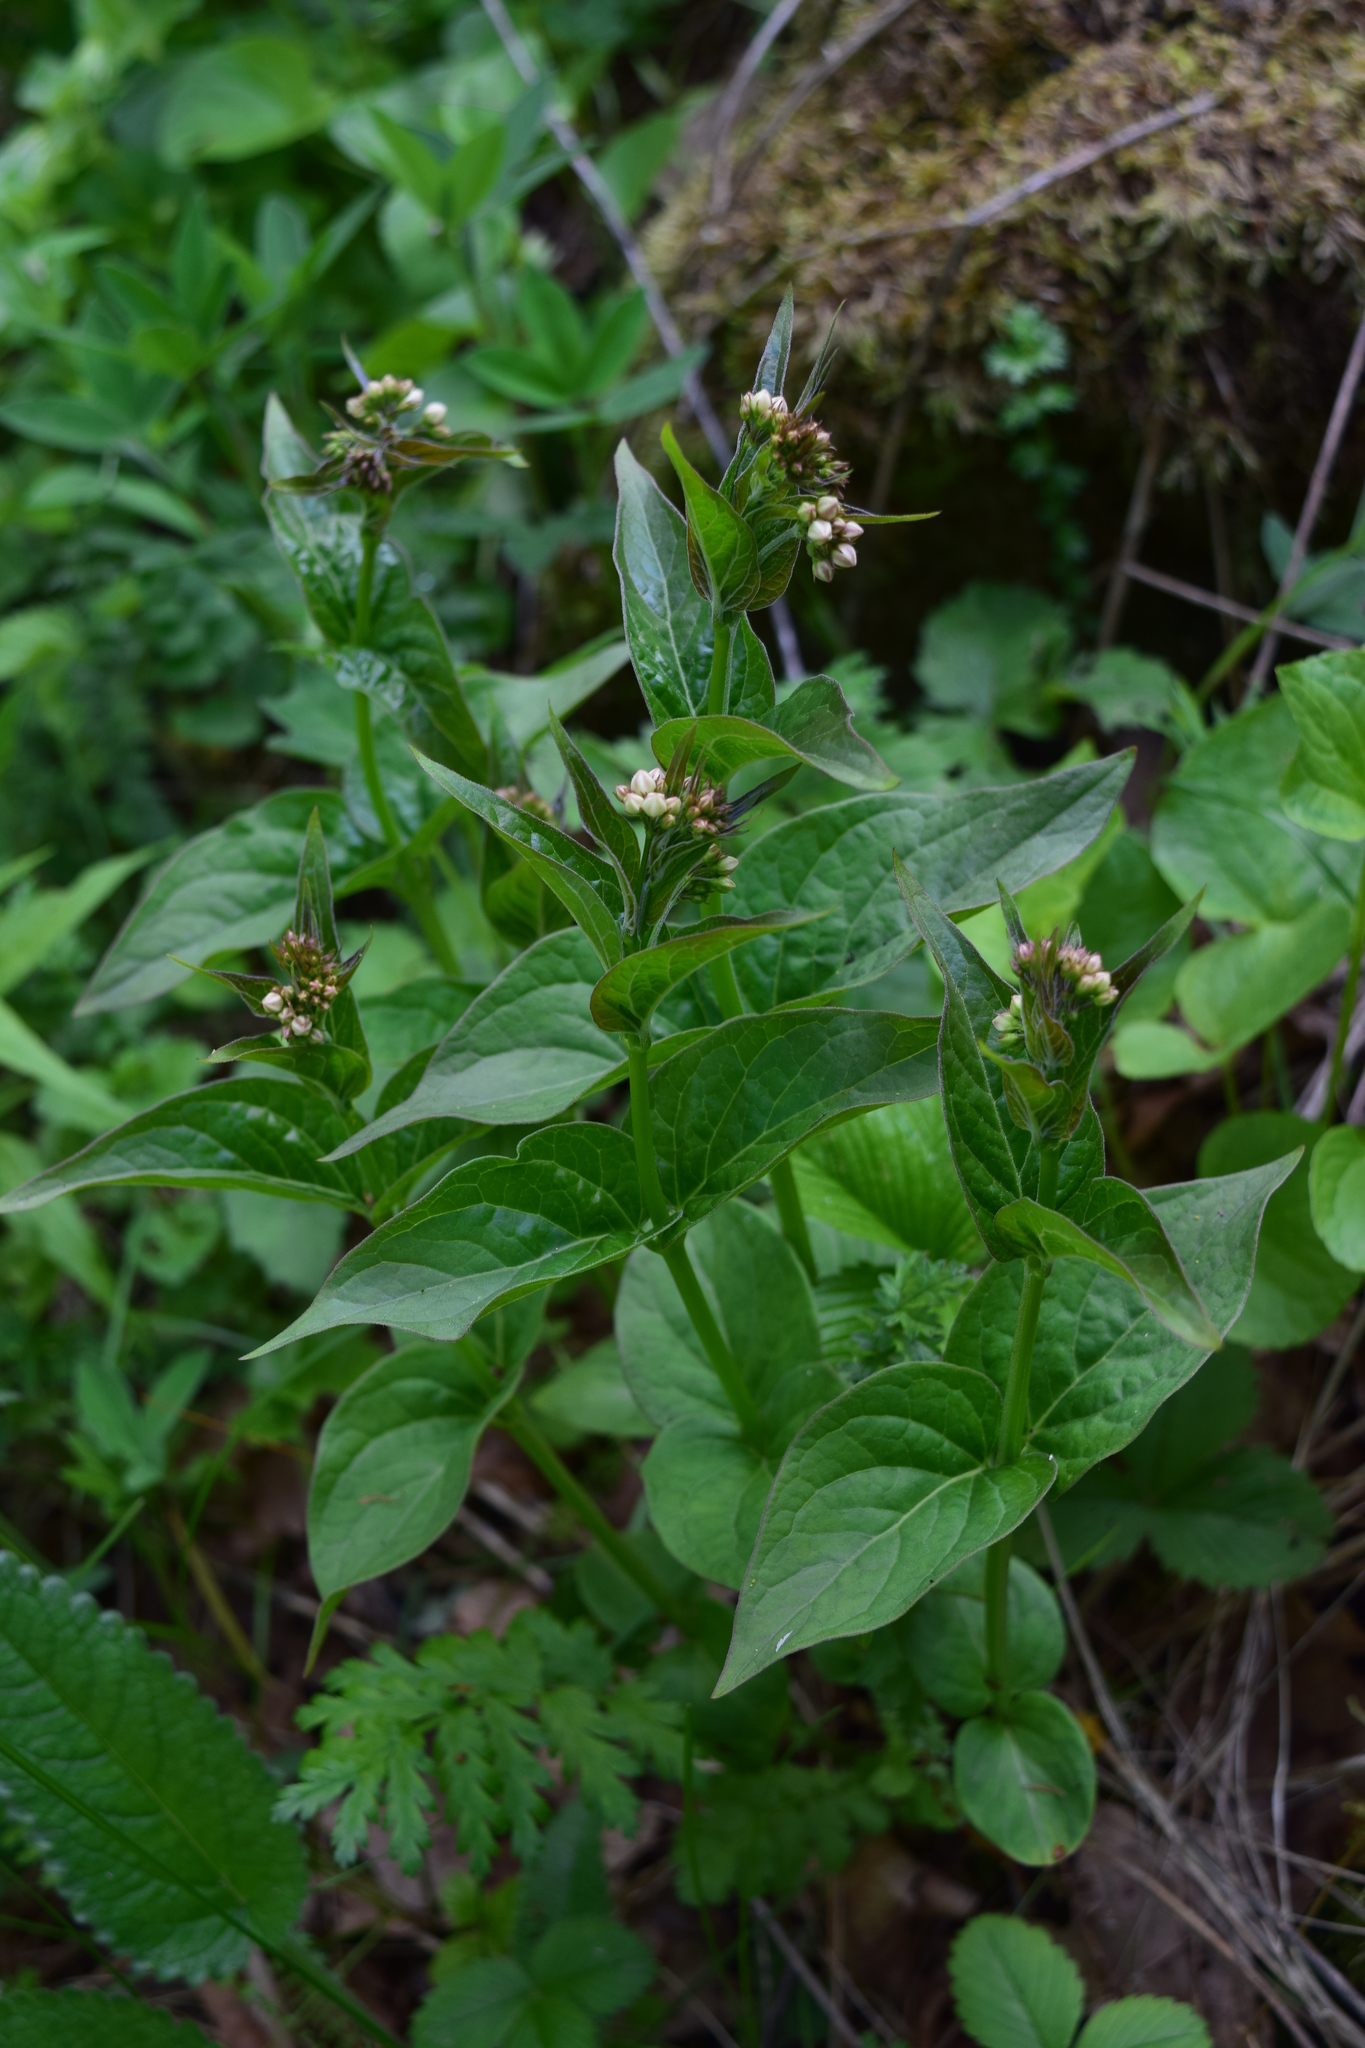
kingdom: Plantae
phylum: Tracheophyta
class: Magnoliopsida
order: Gentianales
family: Apocynaceae
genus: Vincetoxicum
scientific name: Vincetoxicum hirundinaria
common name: White swallowwort
